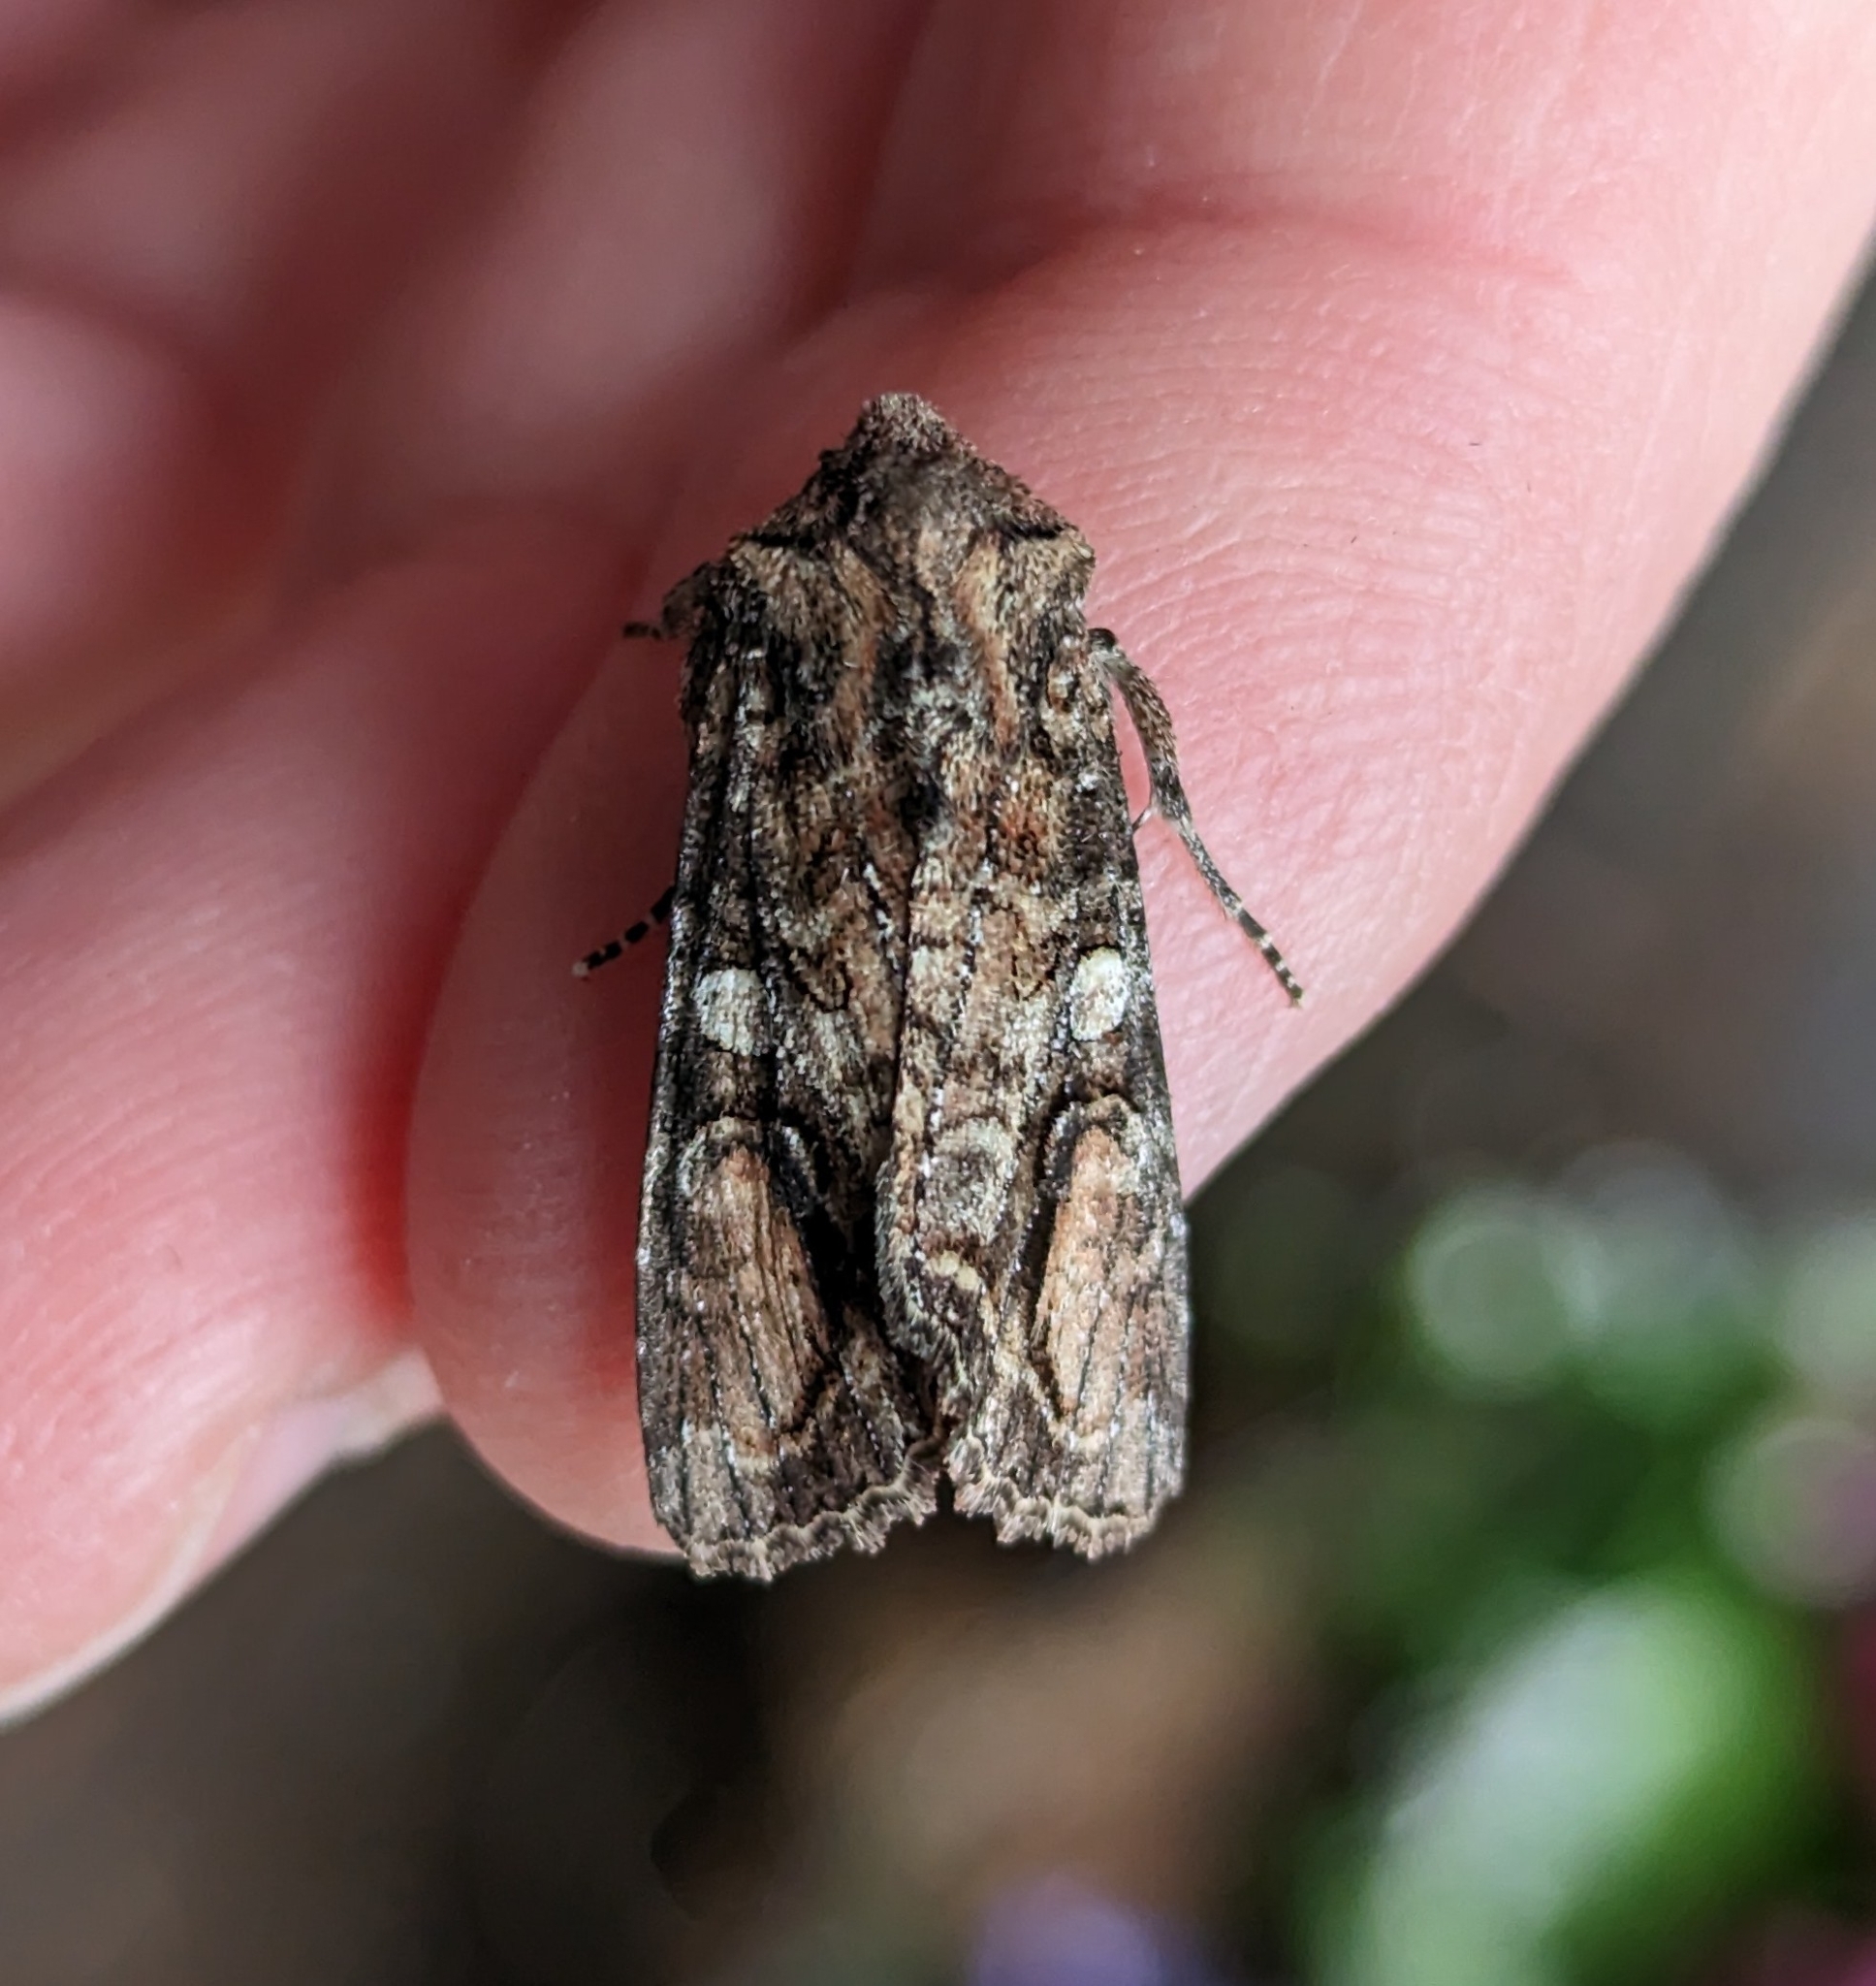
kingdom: Animalia
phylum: Arthropoda
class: Insecta
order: Lepidoptera
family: Noctuidae
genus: Egira
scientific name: Egira perlubens
